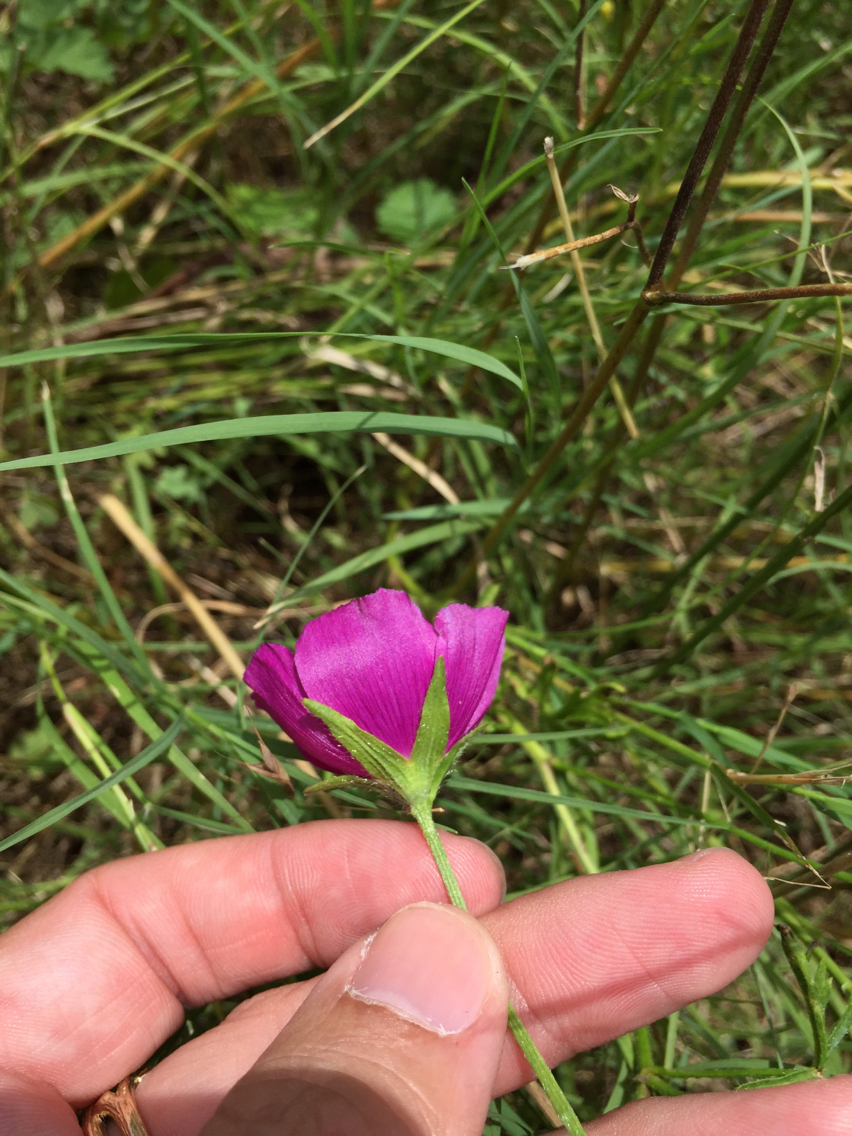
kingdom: Plantae
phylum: Tracheophyta
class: Magnoliopsida
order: Malvales
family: Malvaceae
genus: Callirhoe
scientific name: Callirhoe involucrata
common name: Purple poppy-mallow
